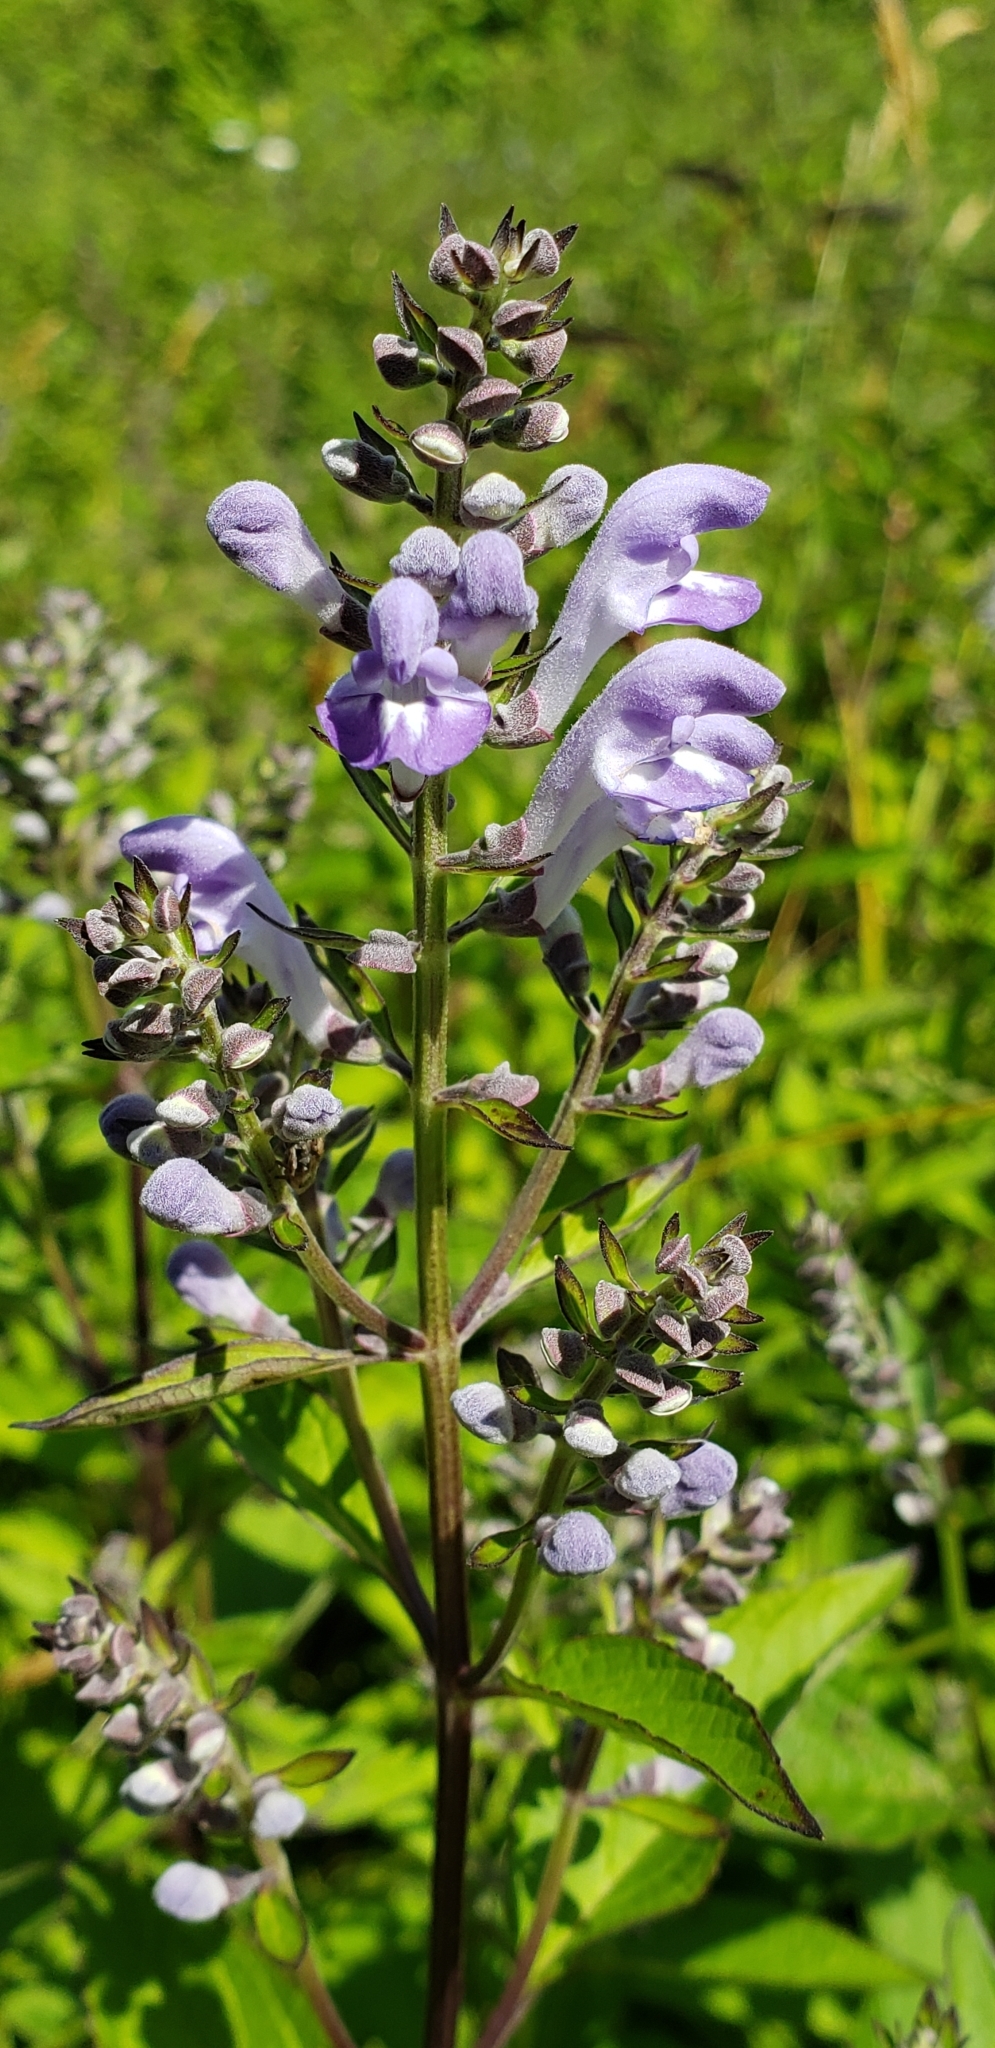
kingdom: Plantae
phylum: Tracheophyta
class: Magnoliopsida
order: Lamiales
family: Lamiaceae
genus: Scutellaria
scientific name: Scutellaria incana
